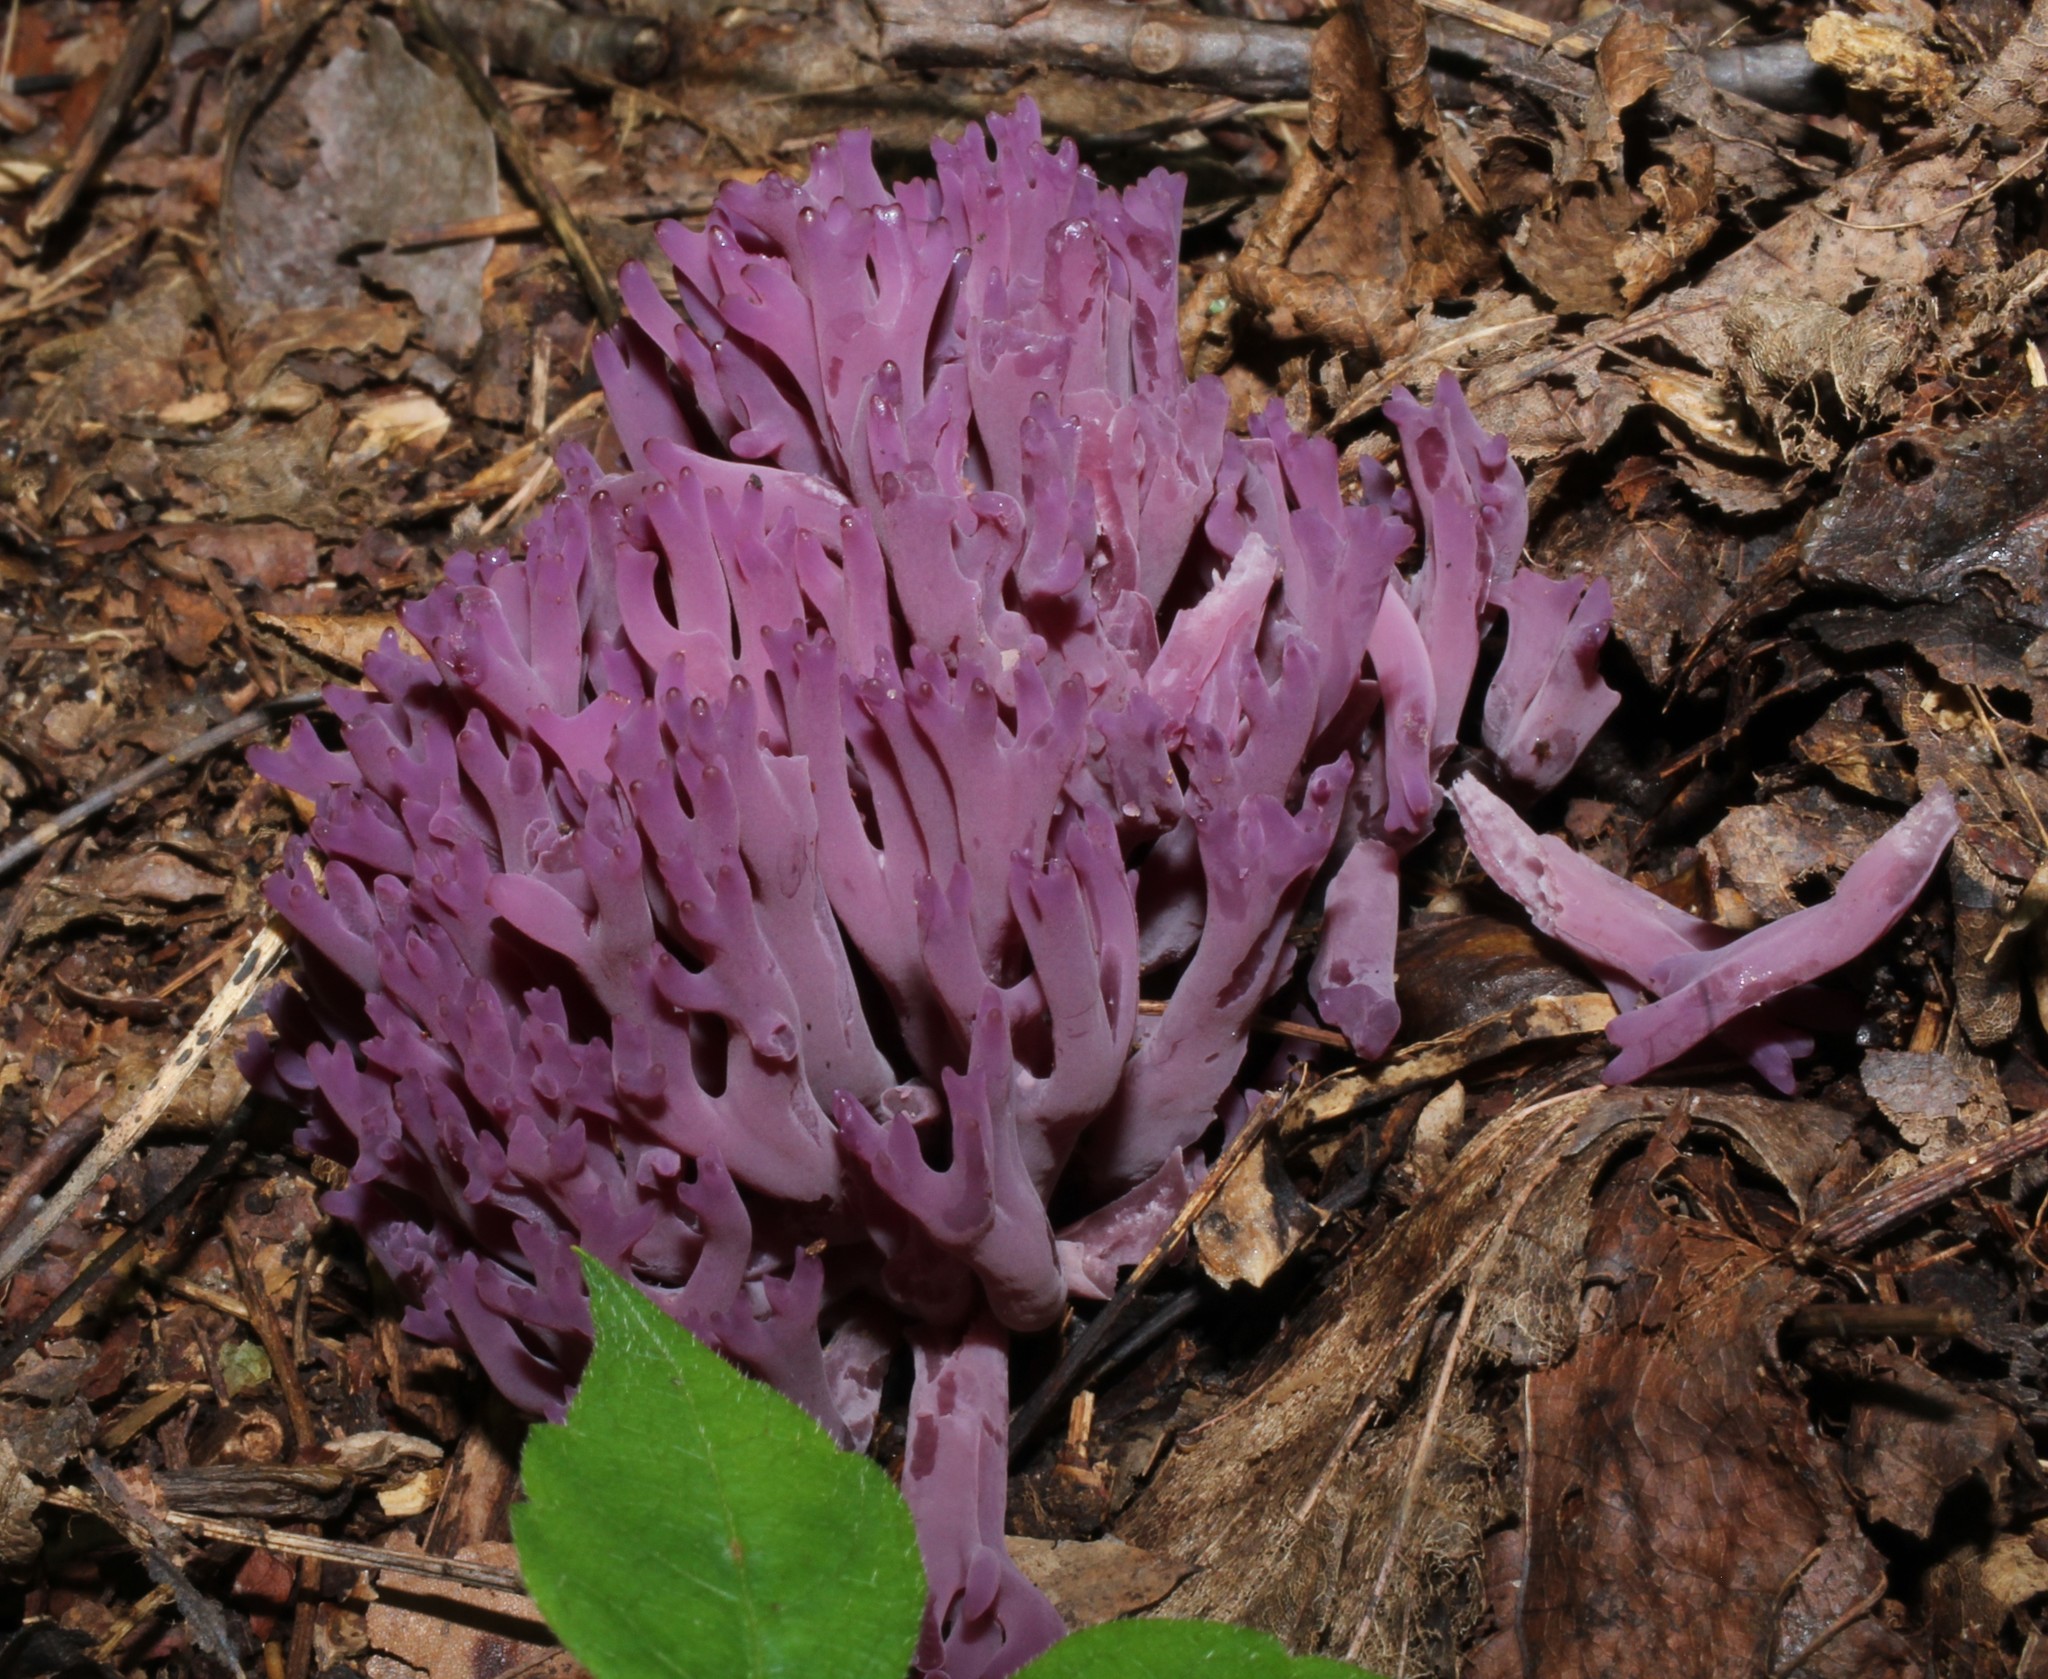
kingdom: Fungi
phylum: Basidiomycota
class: Agaricomycetes
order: Agaricales
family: Clavariaceae
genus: Clavaria
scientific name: Clavaria zollingeri
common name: Violet coral
